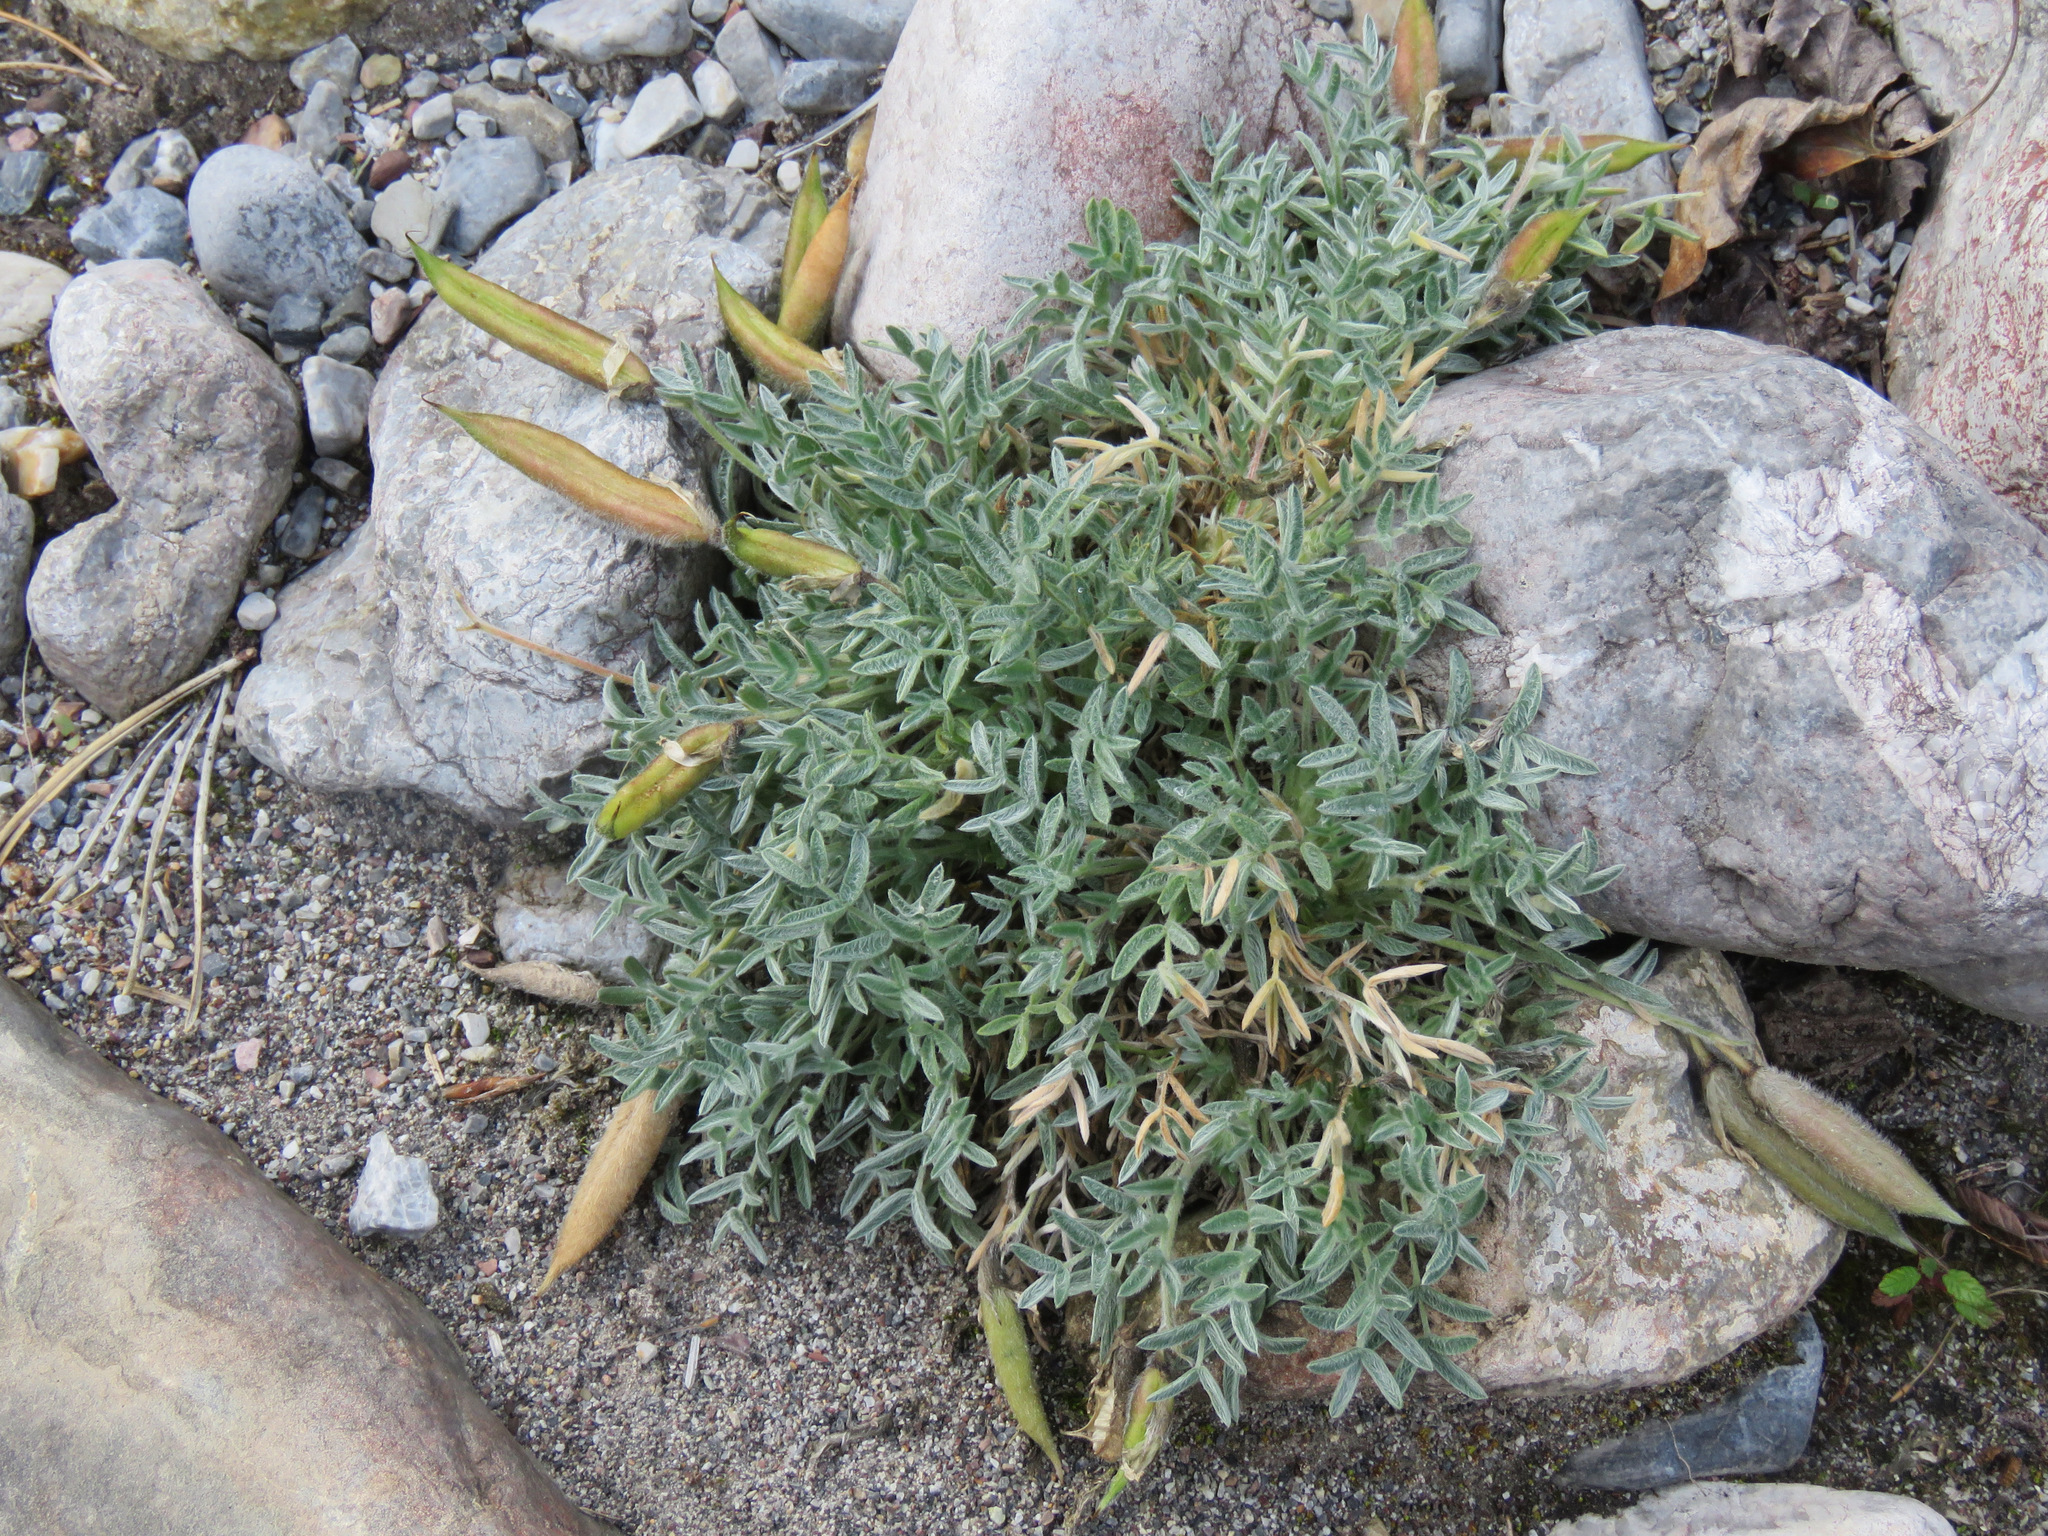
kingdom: Plantae
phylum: Tracheophyta
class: Magnoliopsida
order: Fabales
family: Fabaceae
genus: Oxytropis
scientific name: Oxytropis nigrescens
